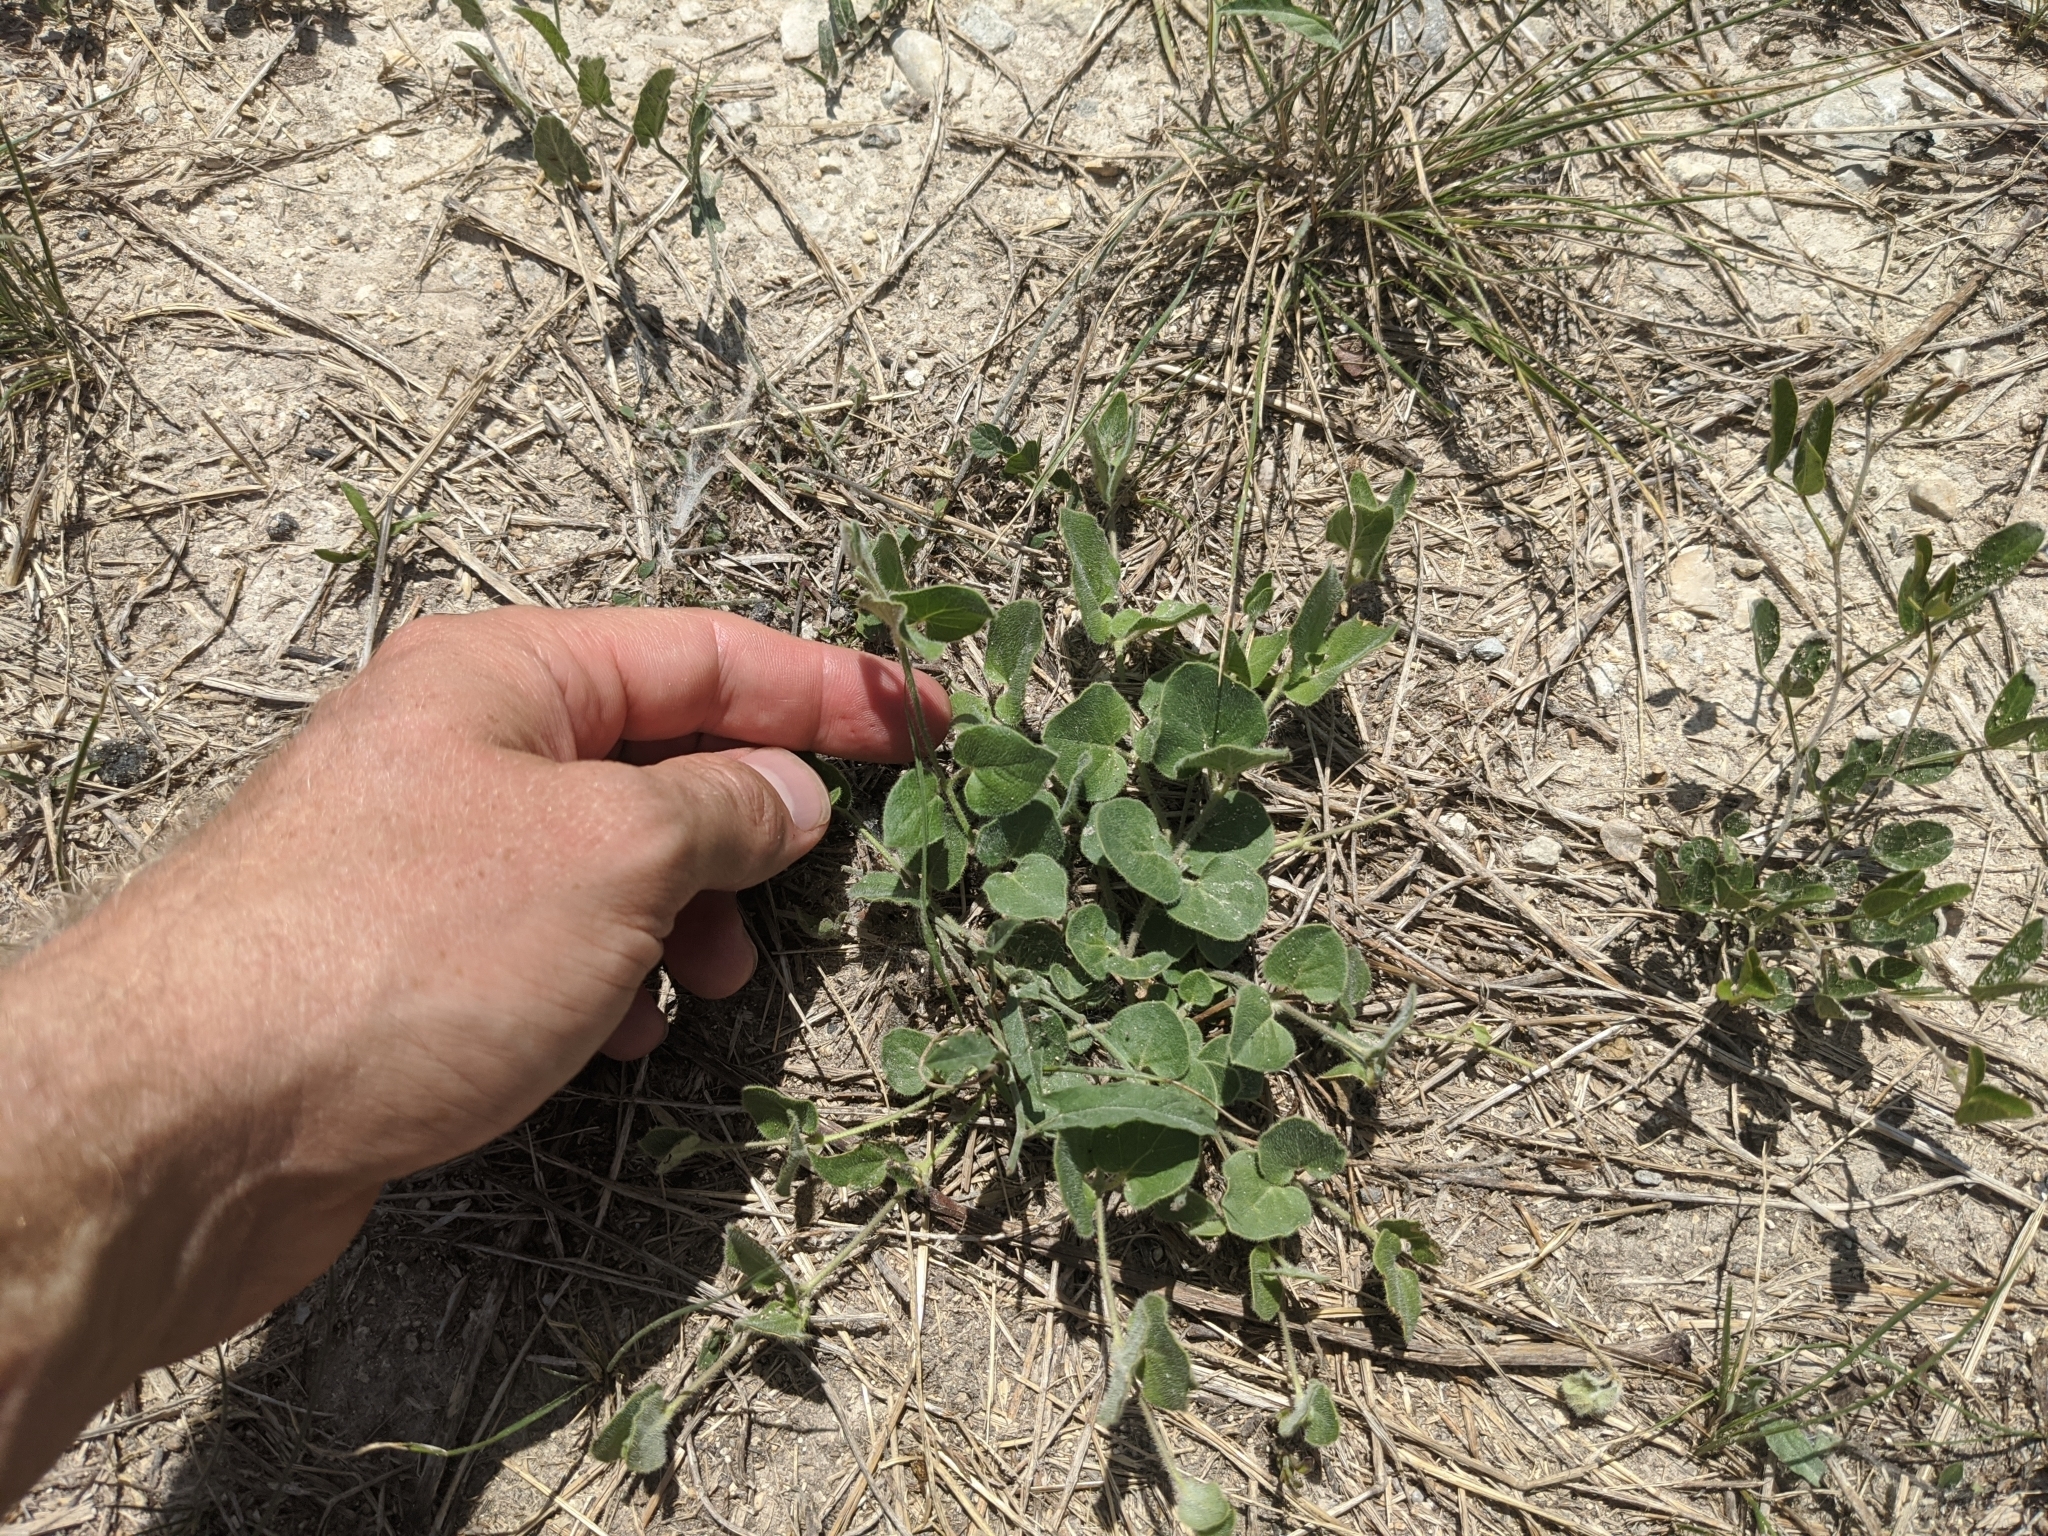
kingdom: Plantae
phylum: Tracheophyta
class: Magnoliopsida
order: Gentianales
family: Apocynaceae
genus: Chthamalia
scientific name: Chthamalia biflora
